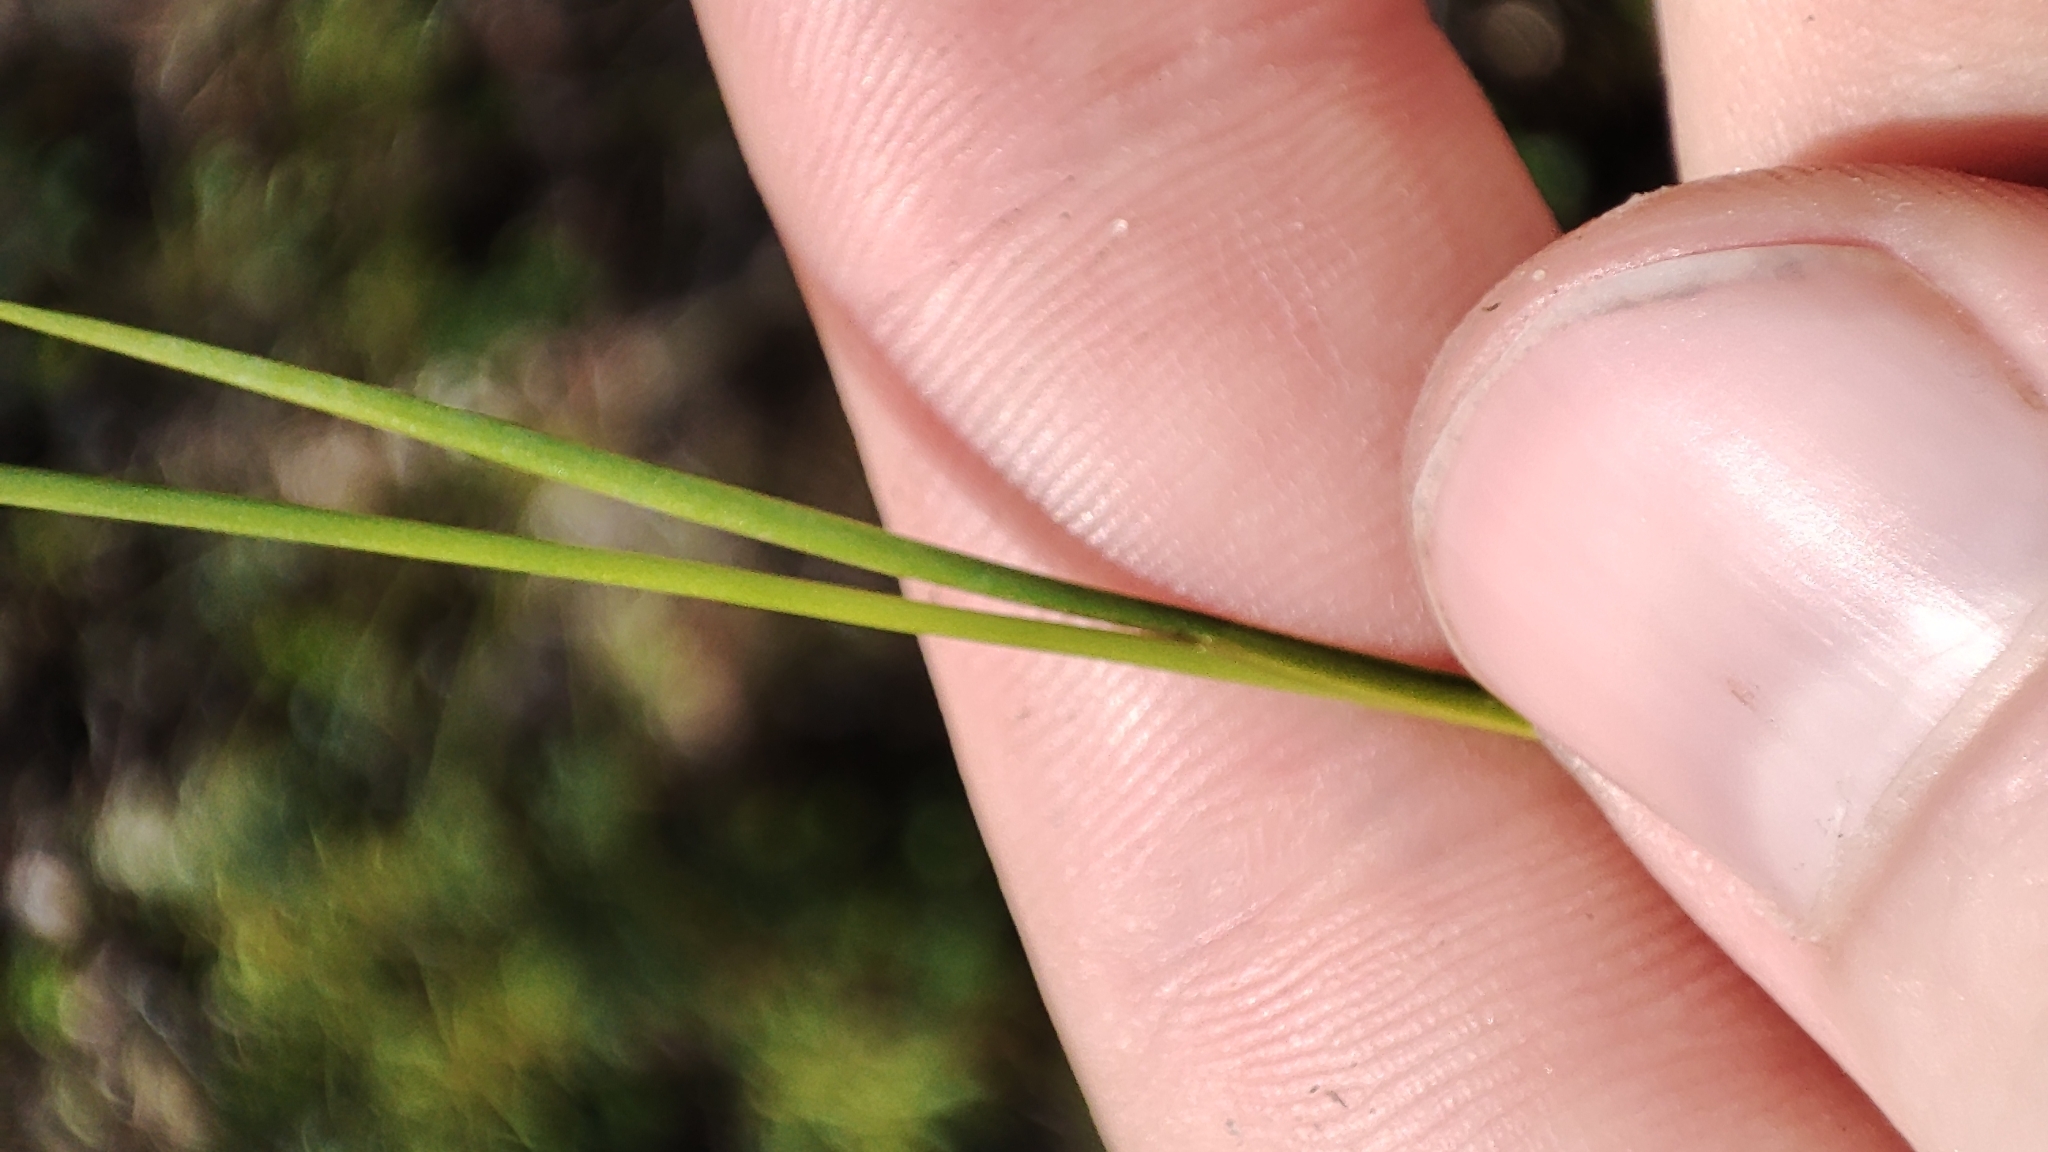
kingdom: Plantae
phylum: Tracheophyta
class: Liliopsida
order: Poales
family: Juncaceae
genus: Juncus
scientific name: Juncus articulatus
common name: Jointed rush
